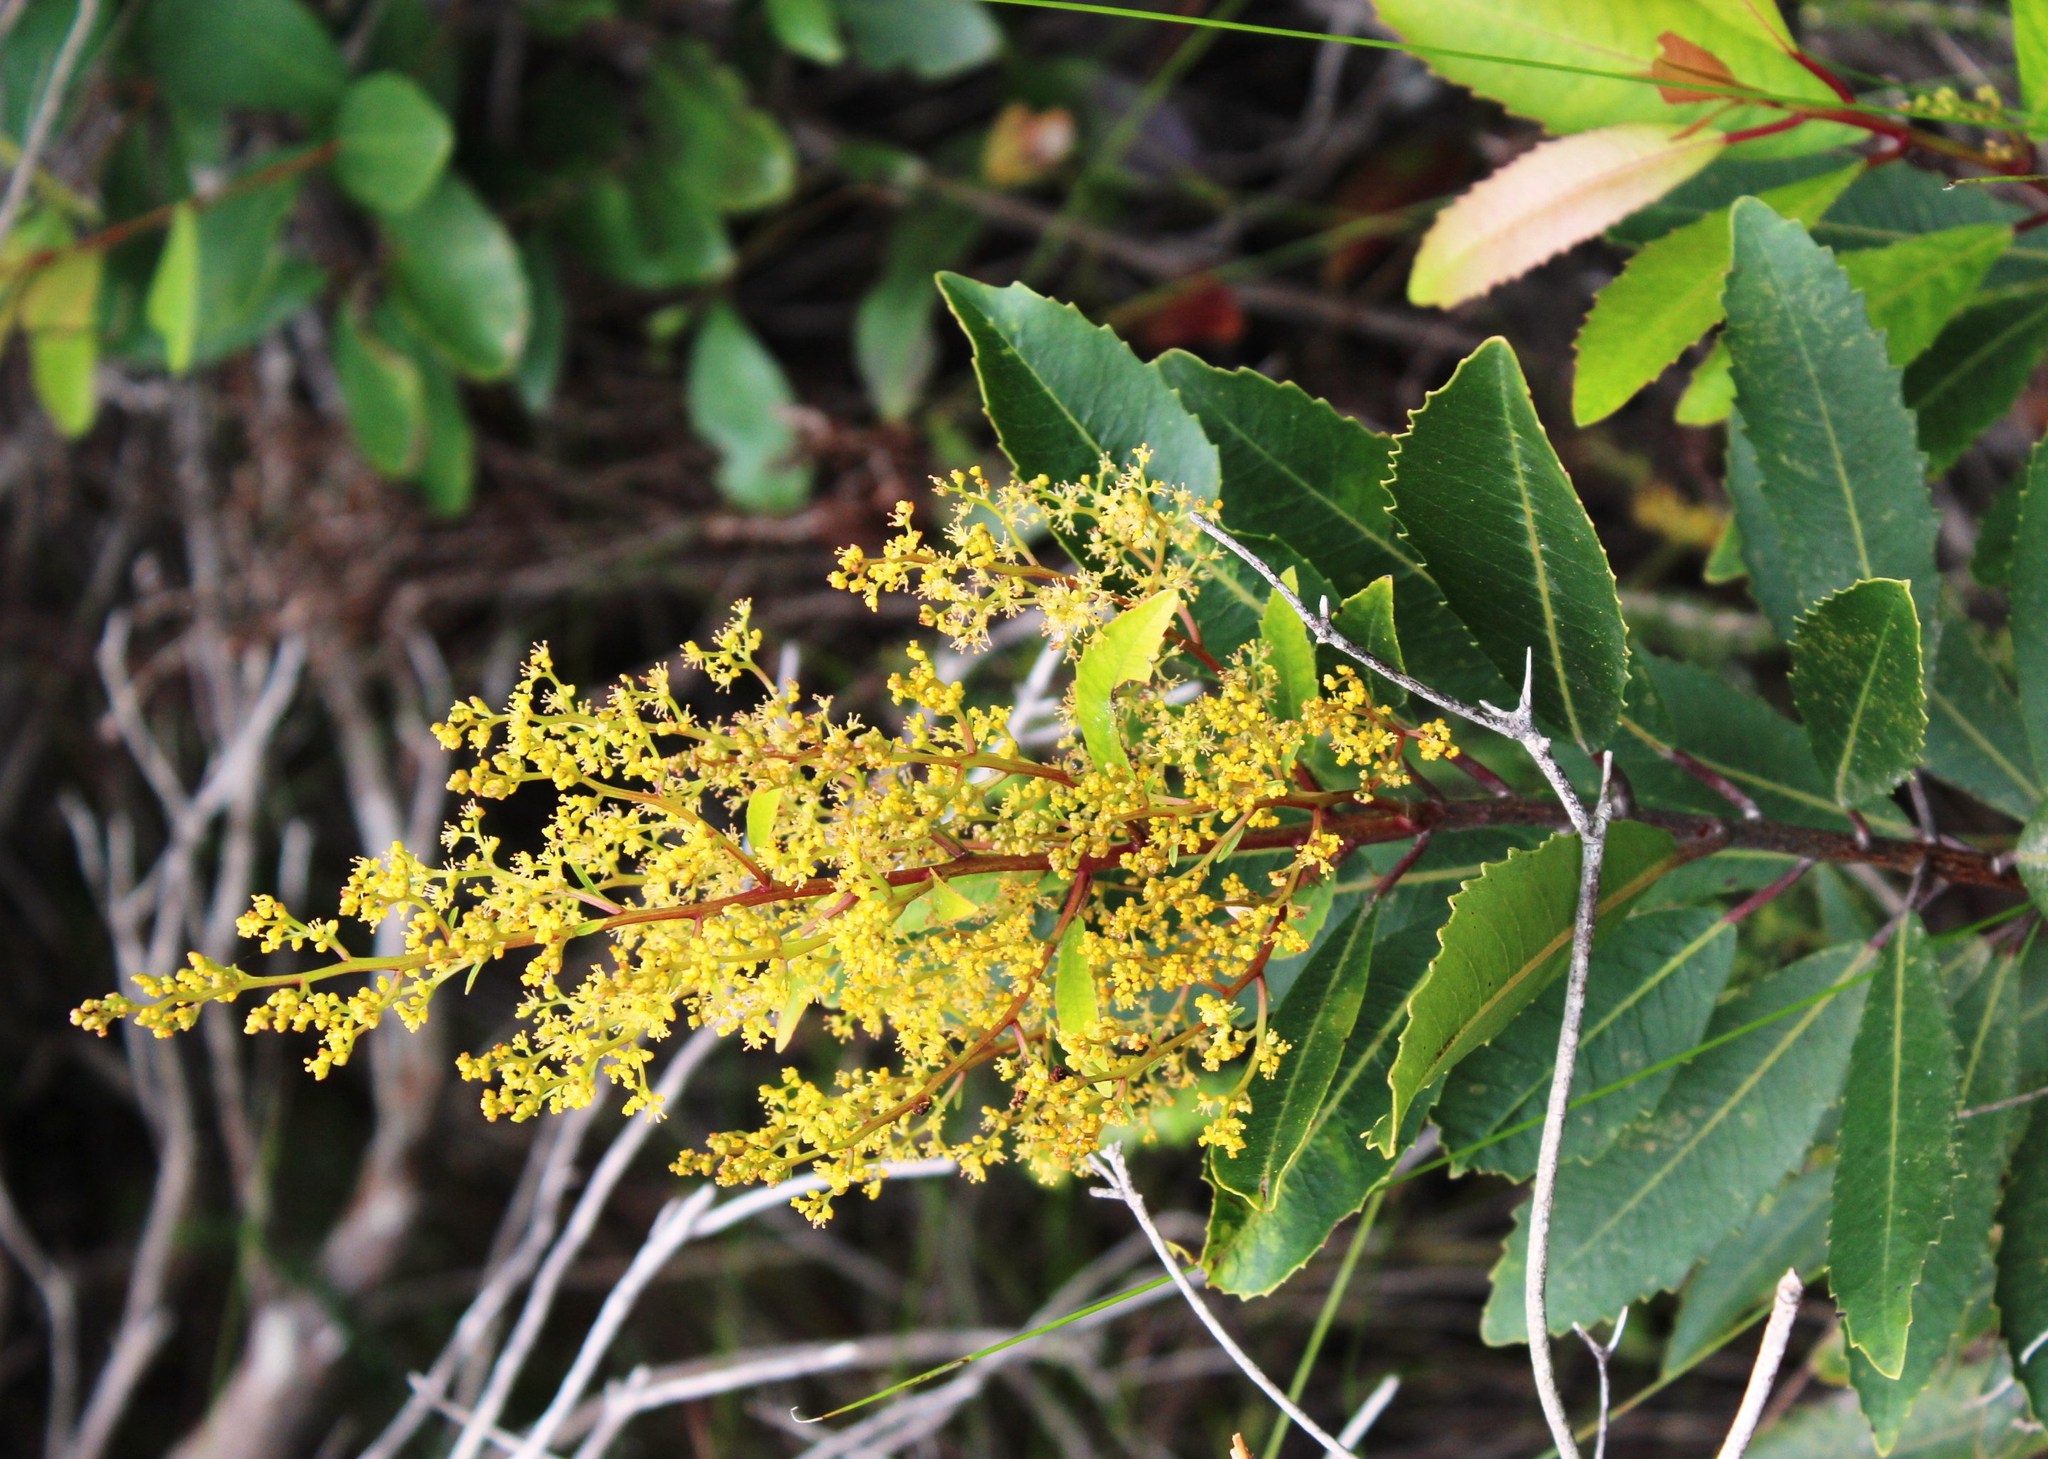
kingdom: Plantae
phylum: Tracheophyta
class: Magnoliopsida
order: Sapindales
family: Anacardiaceae
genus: Laurophyllus
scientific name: Laurophyllus capensis
